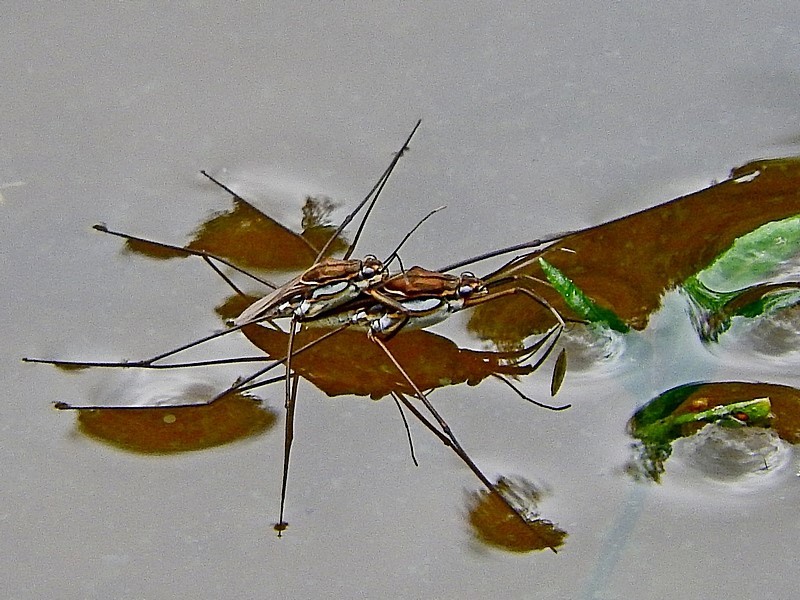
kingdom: Animalia
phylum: Arthropoda
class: Insecta
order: Hemiptera
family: Gerridae
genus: Tenagogerris
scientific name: Tenagogerris euphrosyne
